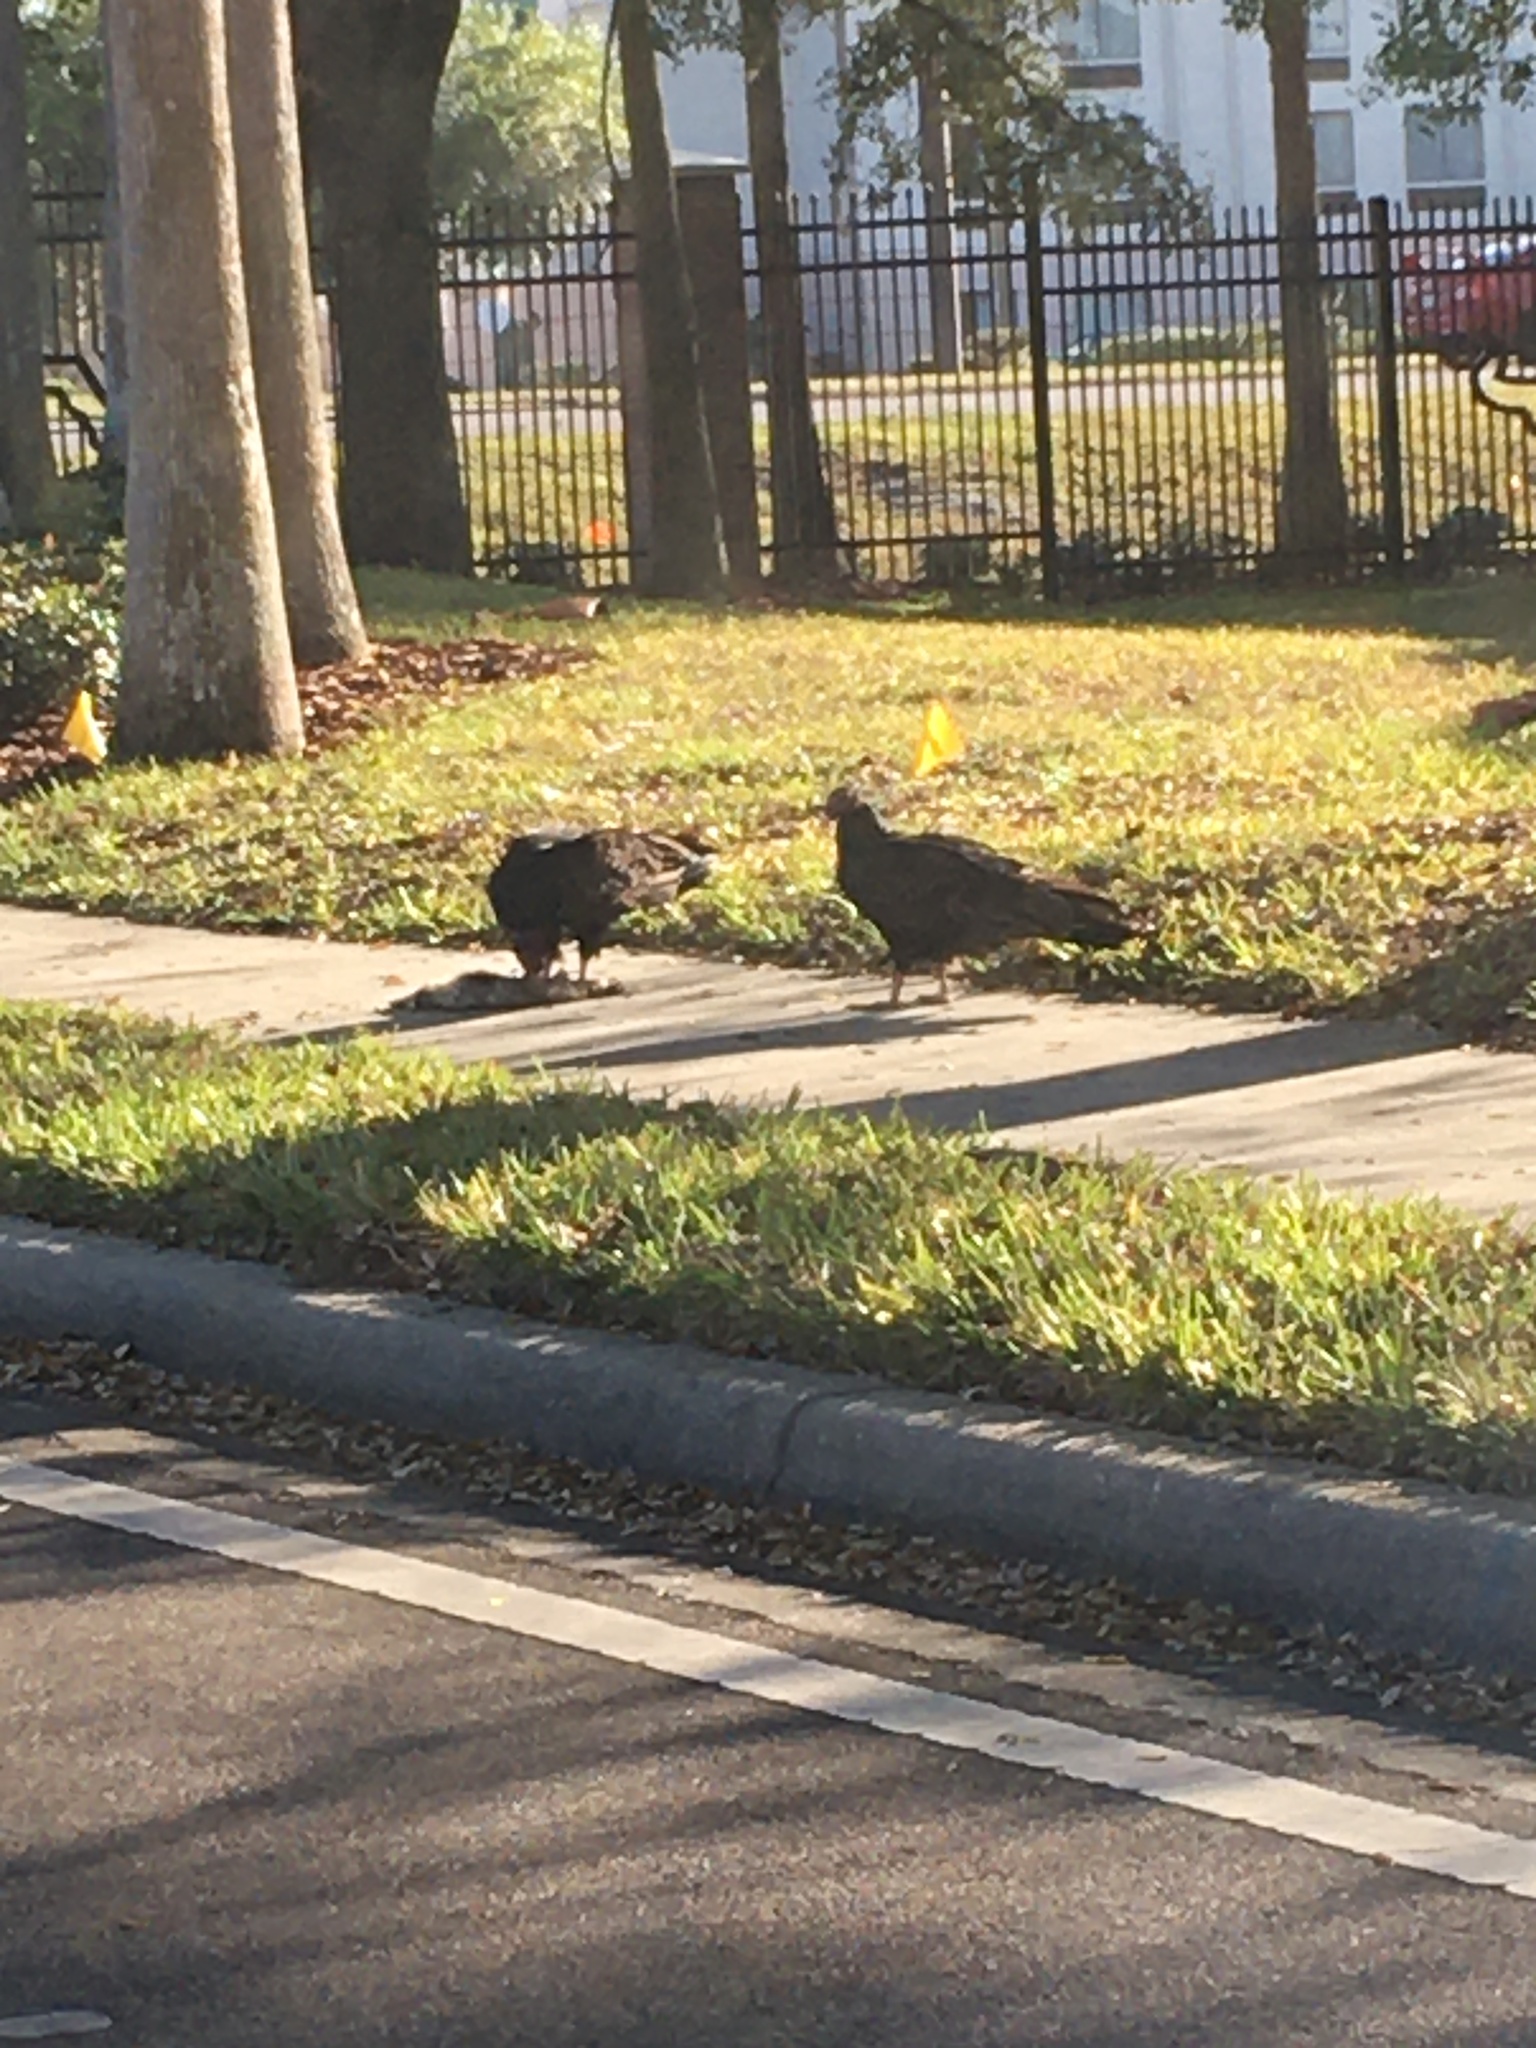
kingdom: Animalia
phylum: Chordata
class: Aves
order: Accipitriformes
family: Cathartidae
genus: Cathartes
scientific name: Cathartes aura
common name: Turkey vulture
